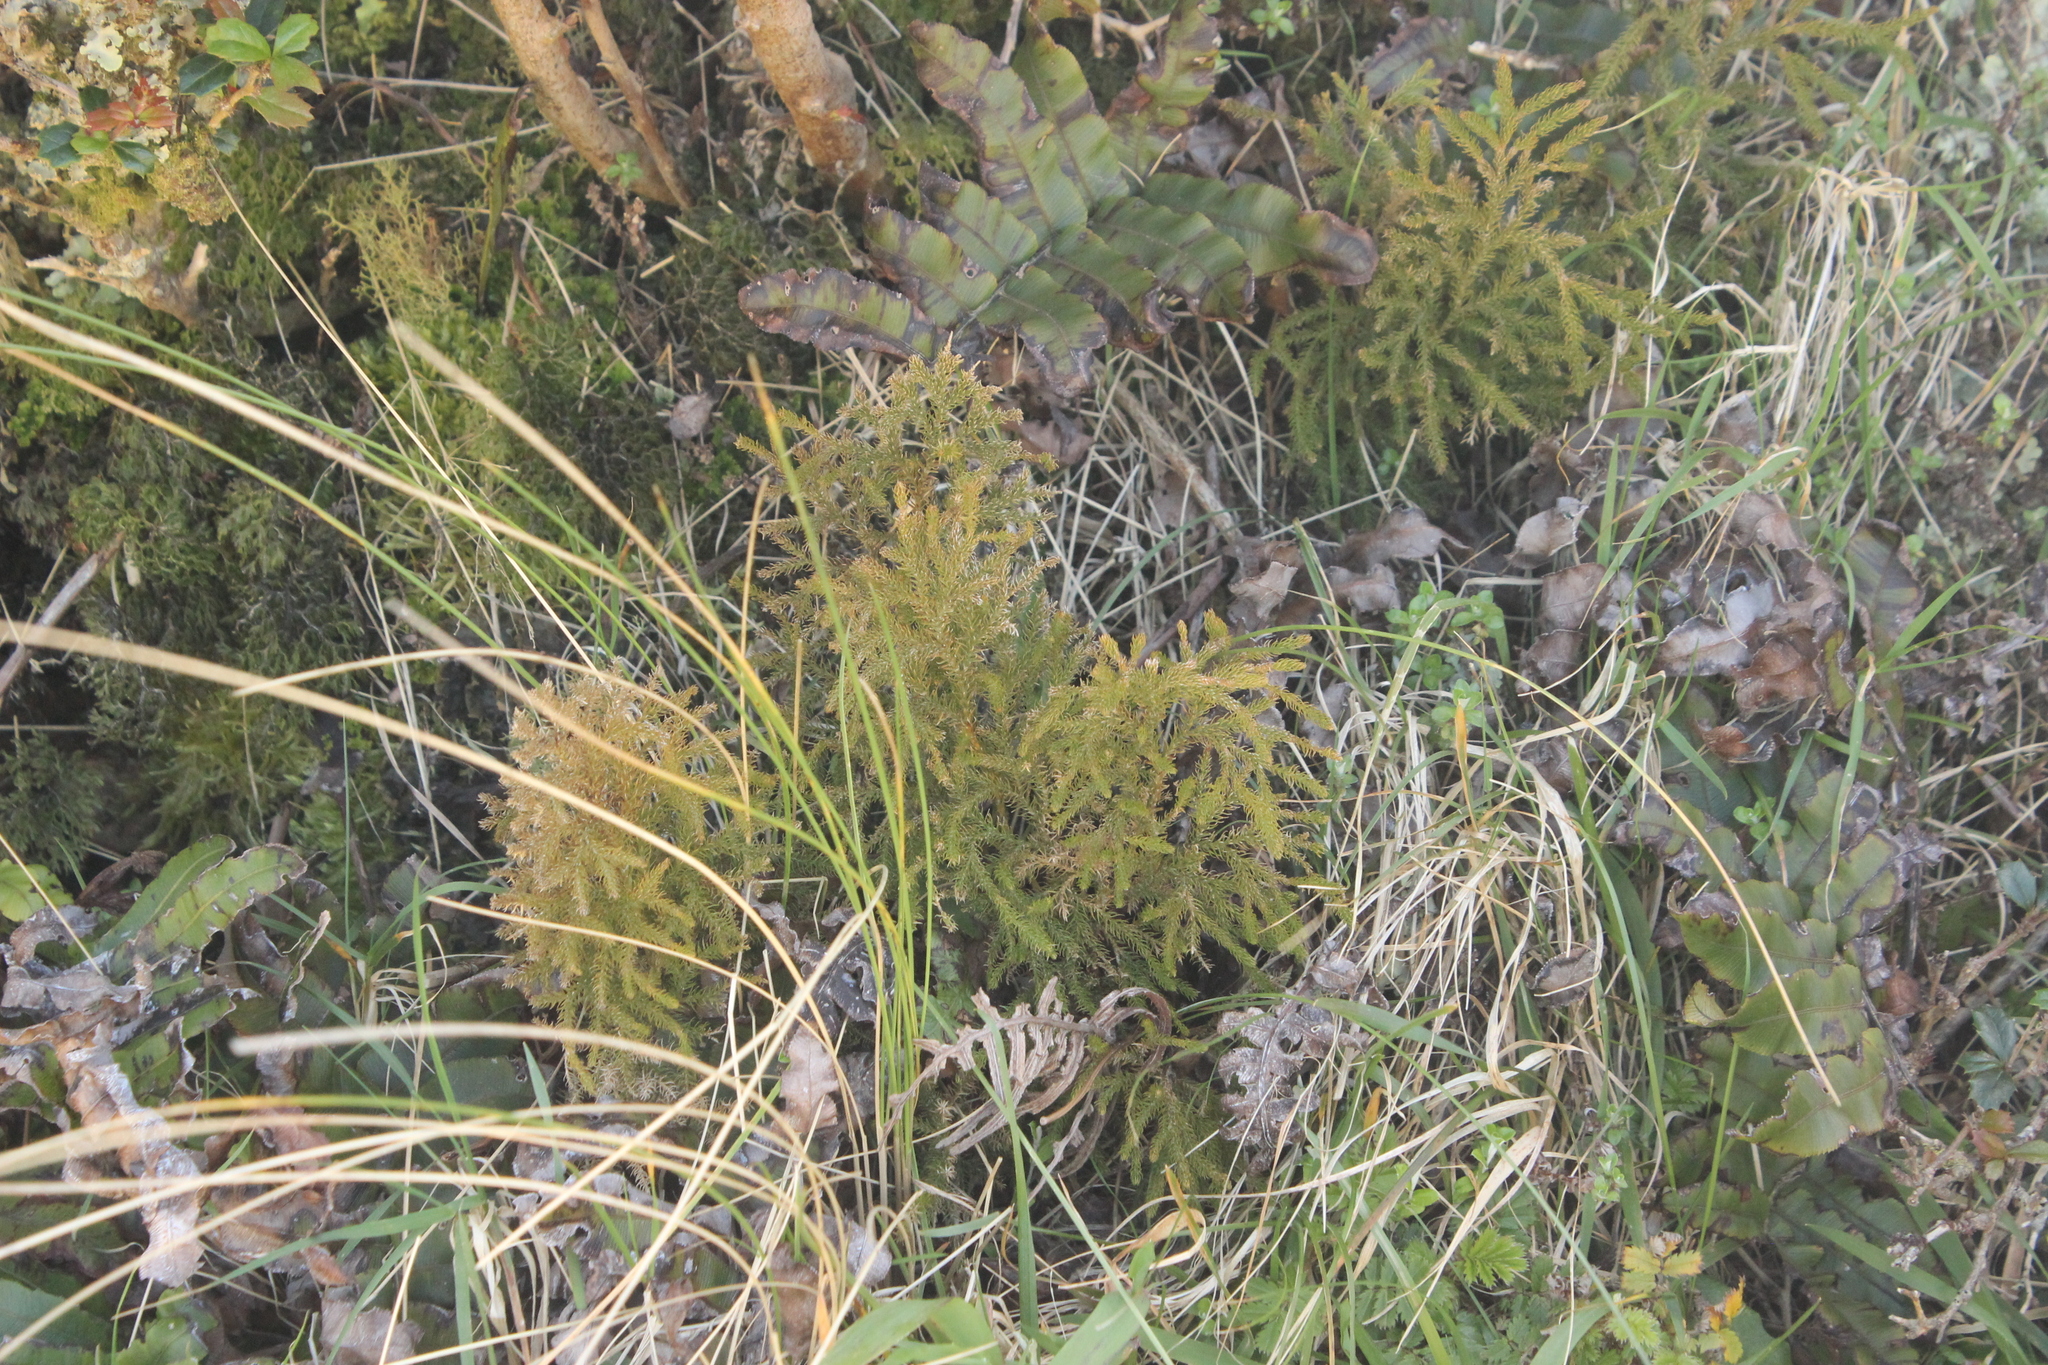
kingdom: Plantae
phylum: Tracheophyta
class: Lycopodiopsida
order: Lycopodiales
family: Lycopodiaceae
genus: Austrolycopodium
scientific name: Austrolycopodium fastigiatum
